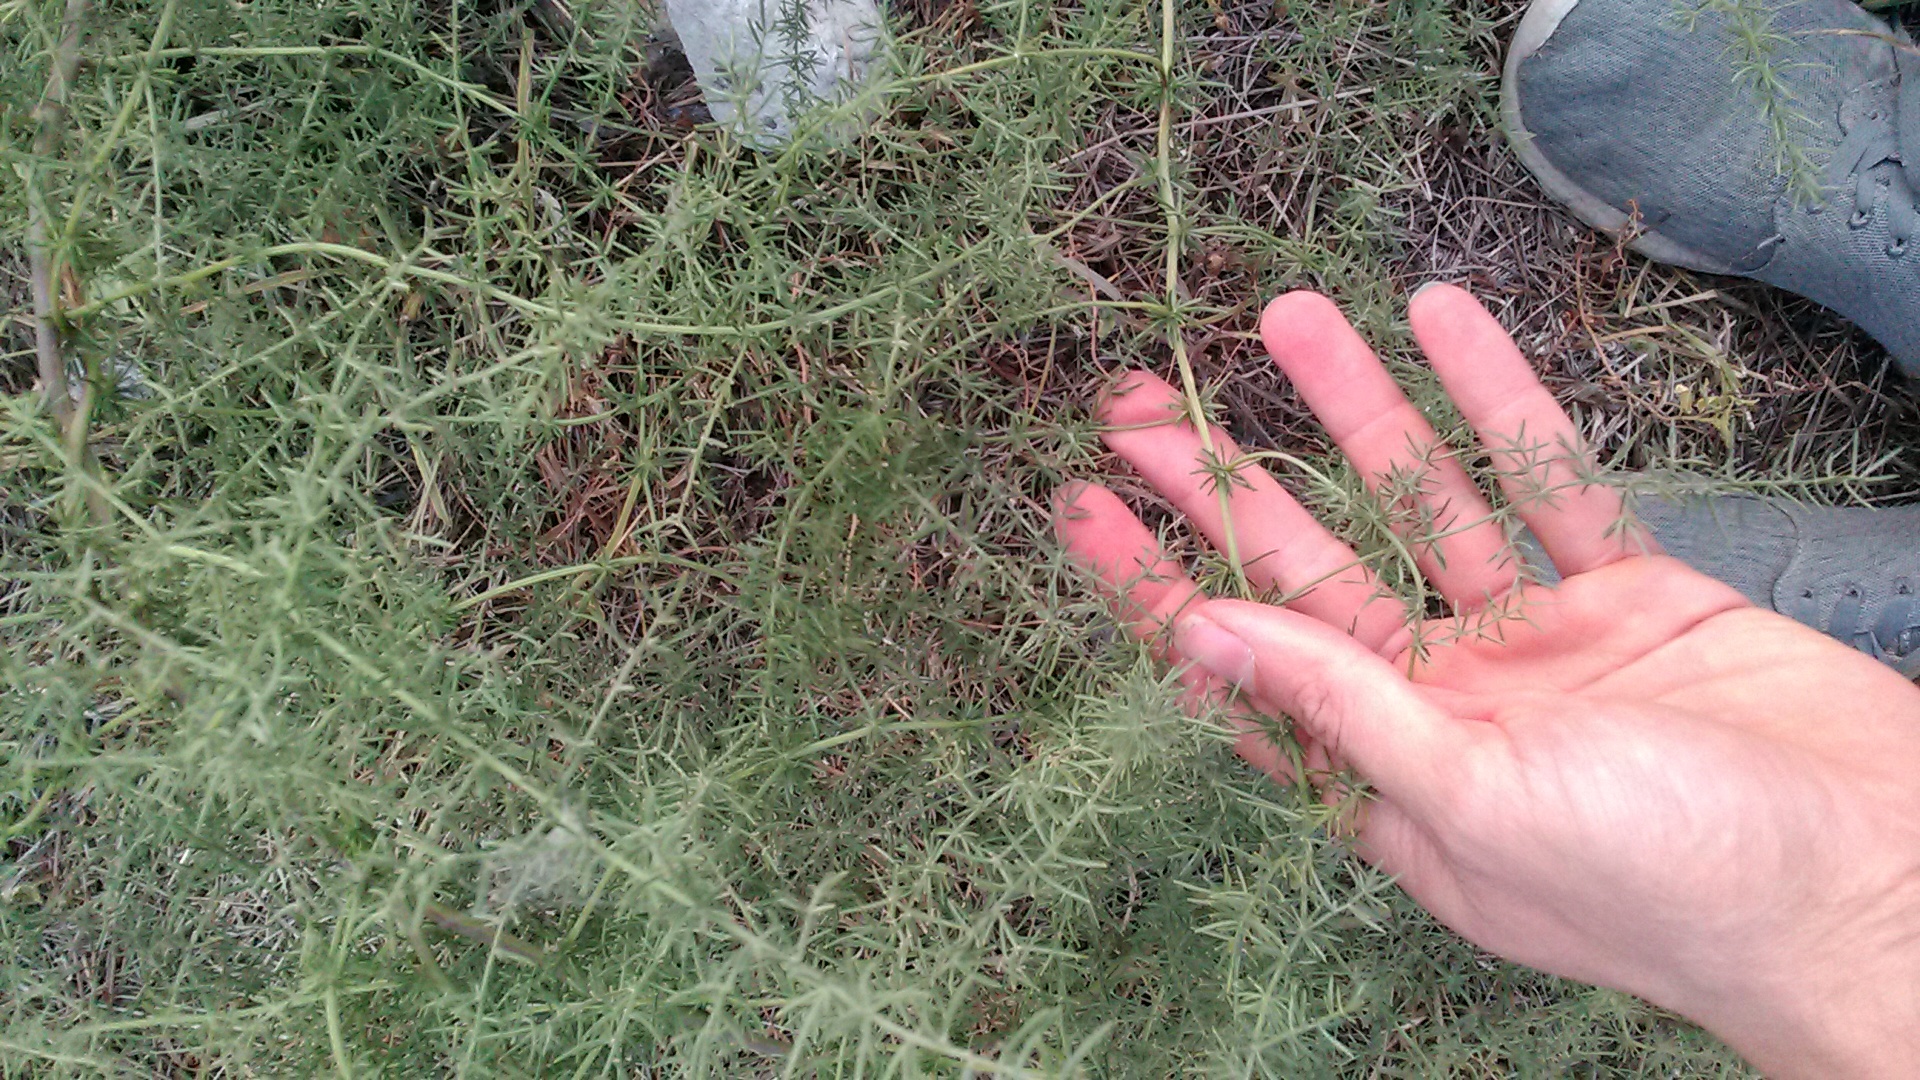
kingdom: Plantae
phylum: Tracheophyta
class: Liliopsida
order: Asparagales
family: Asparagaceae
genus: Asparagus
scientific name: Asparagus verticillatus
